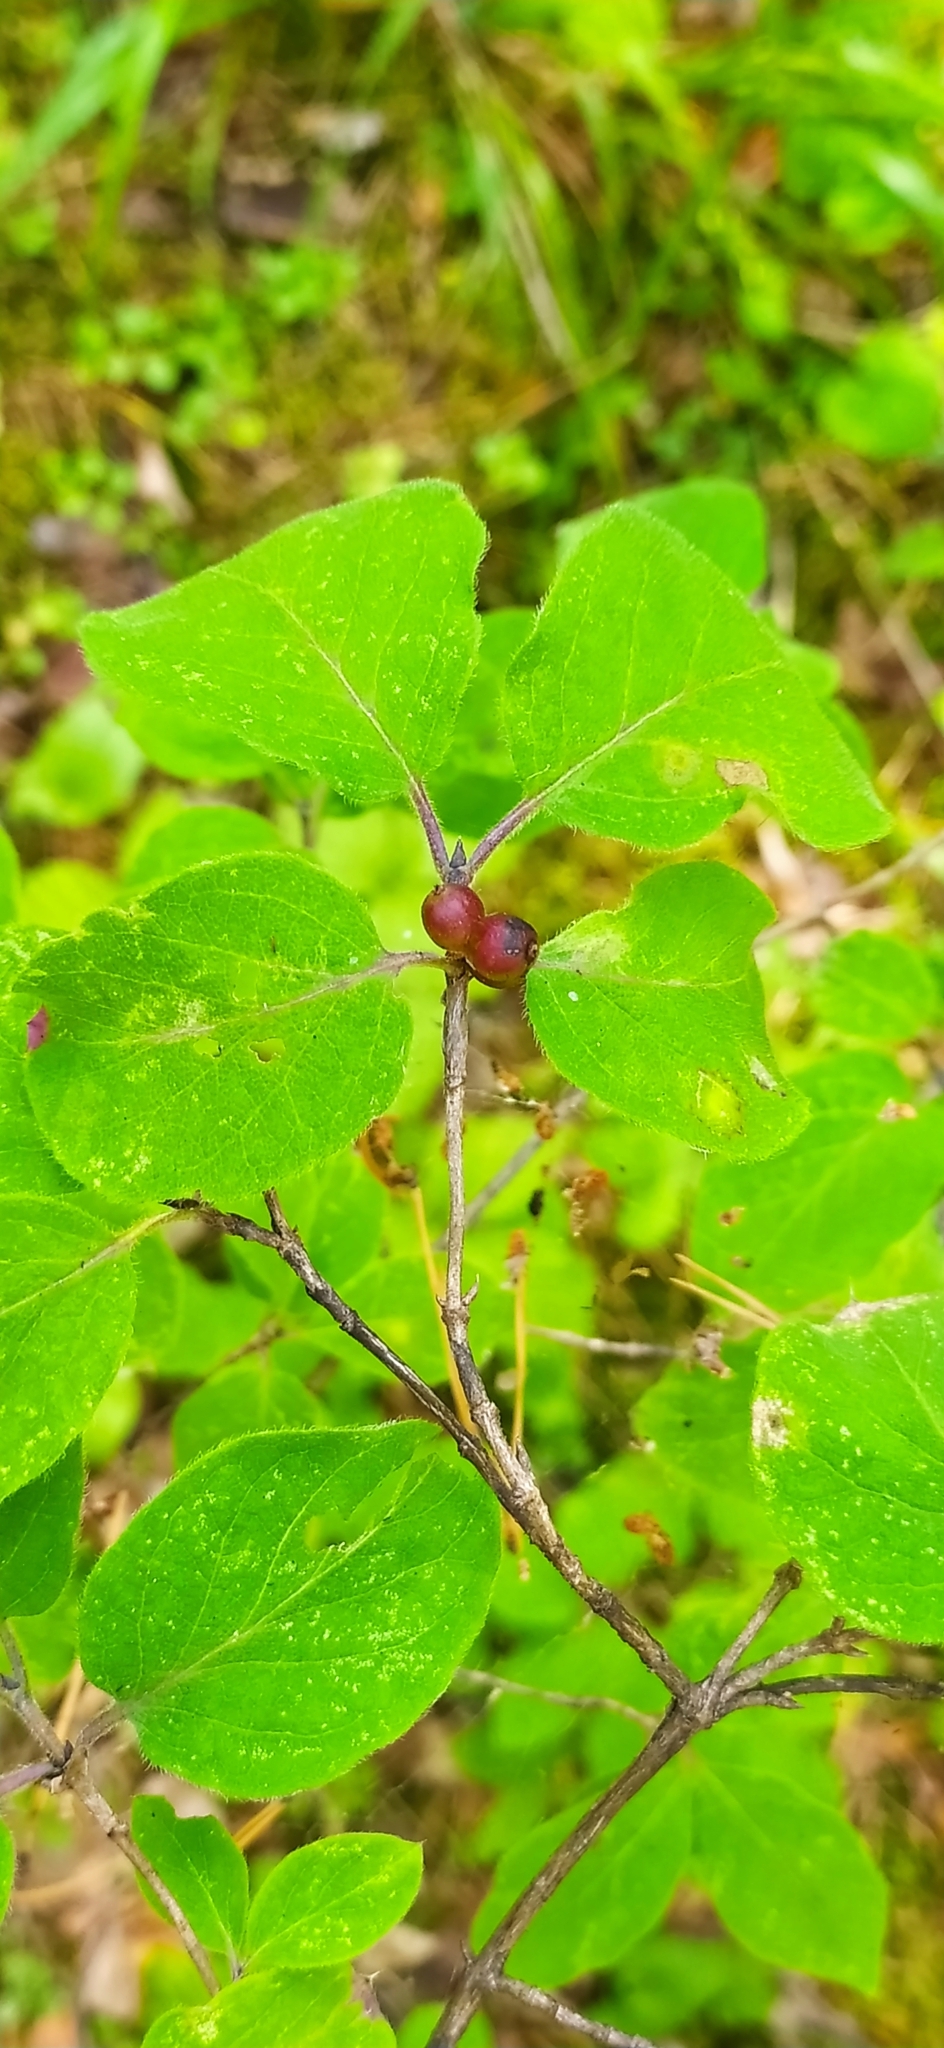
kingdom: Plantae
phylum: Tracheophyta
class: Magnoliopsida
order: Dipsacales
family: Caprifoliaceae
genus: Lonicera
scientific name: Lonicera xylosteum
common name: Fly honeysuckle
